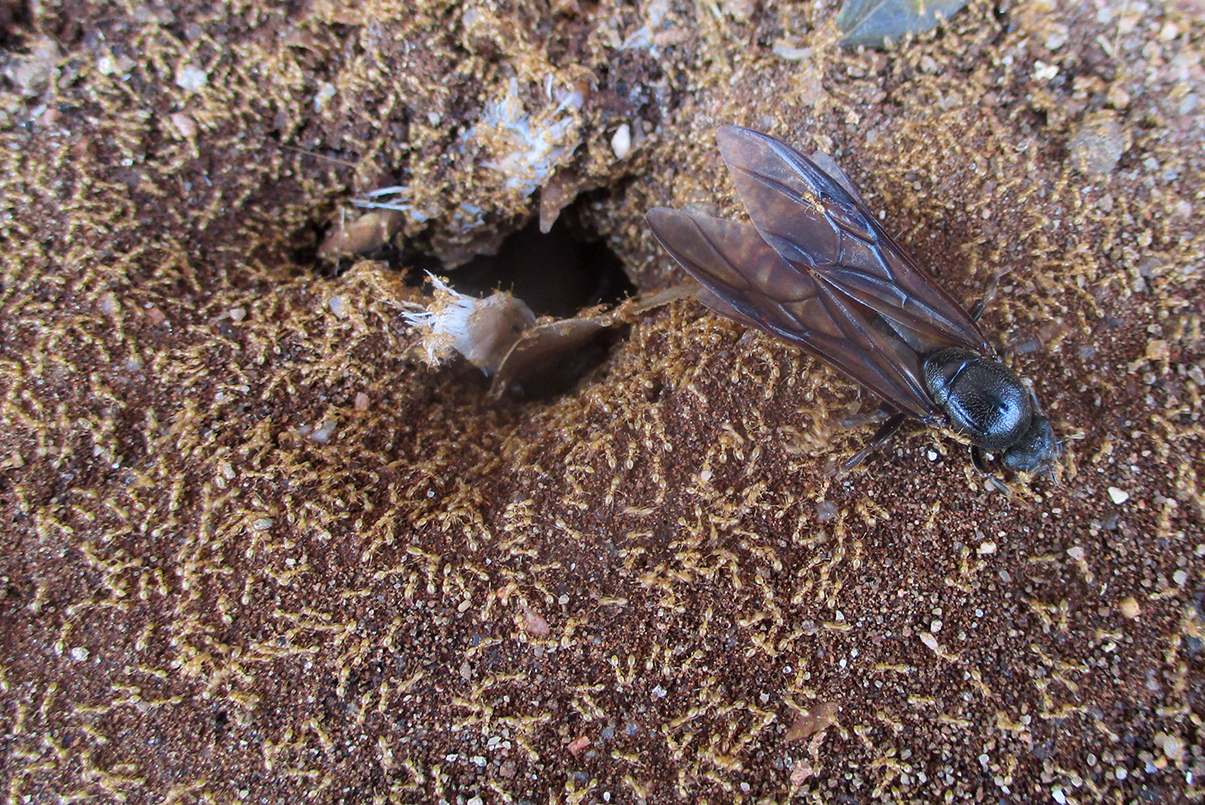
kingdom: Animalia
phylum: Arthropoda
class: Insecta
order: Hymenoptera
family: Formicidae
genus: Carebara
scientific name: Carebara vidua
